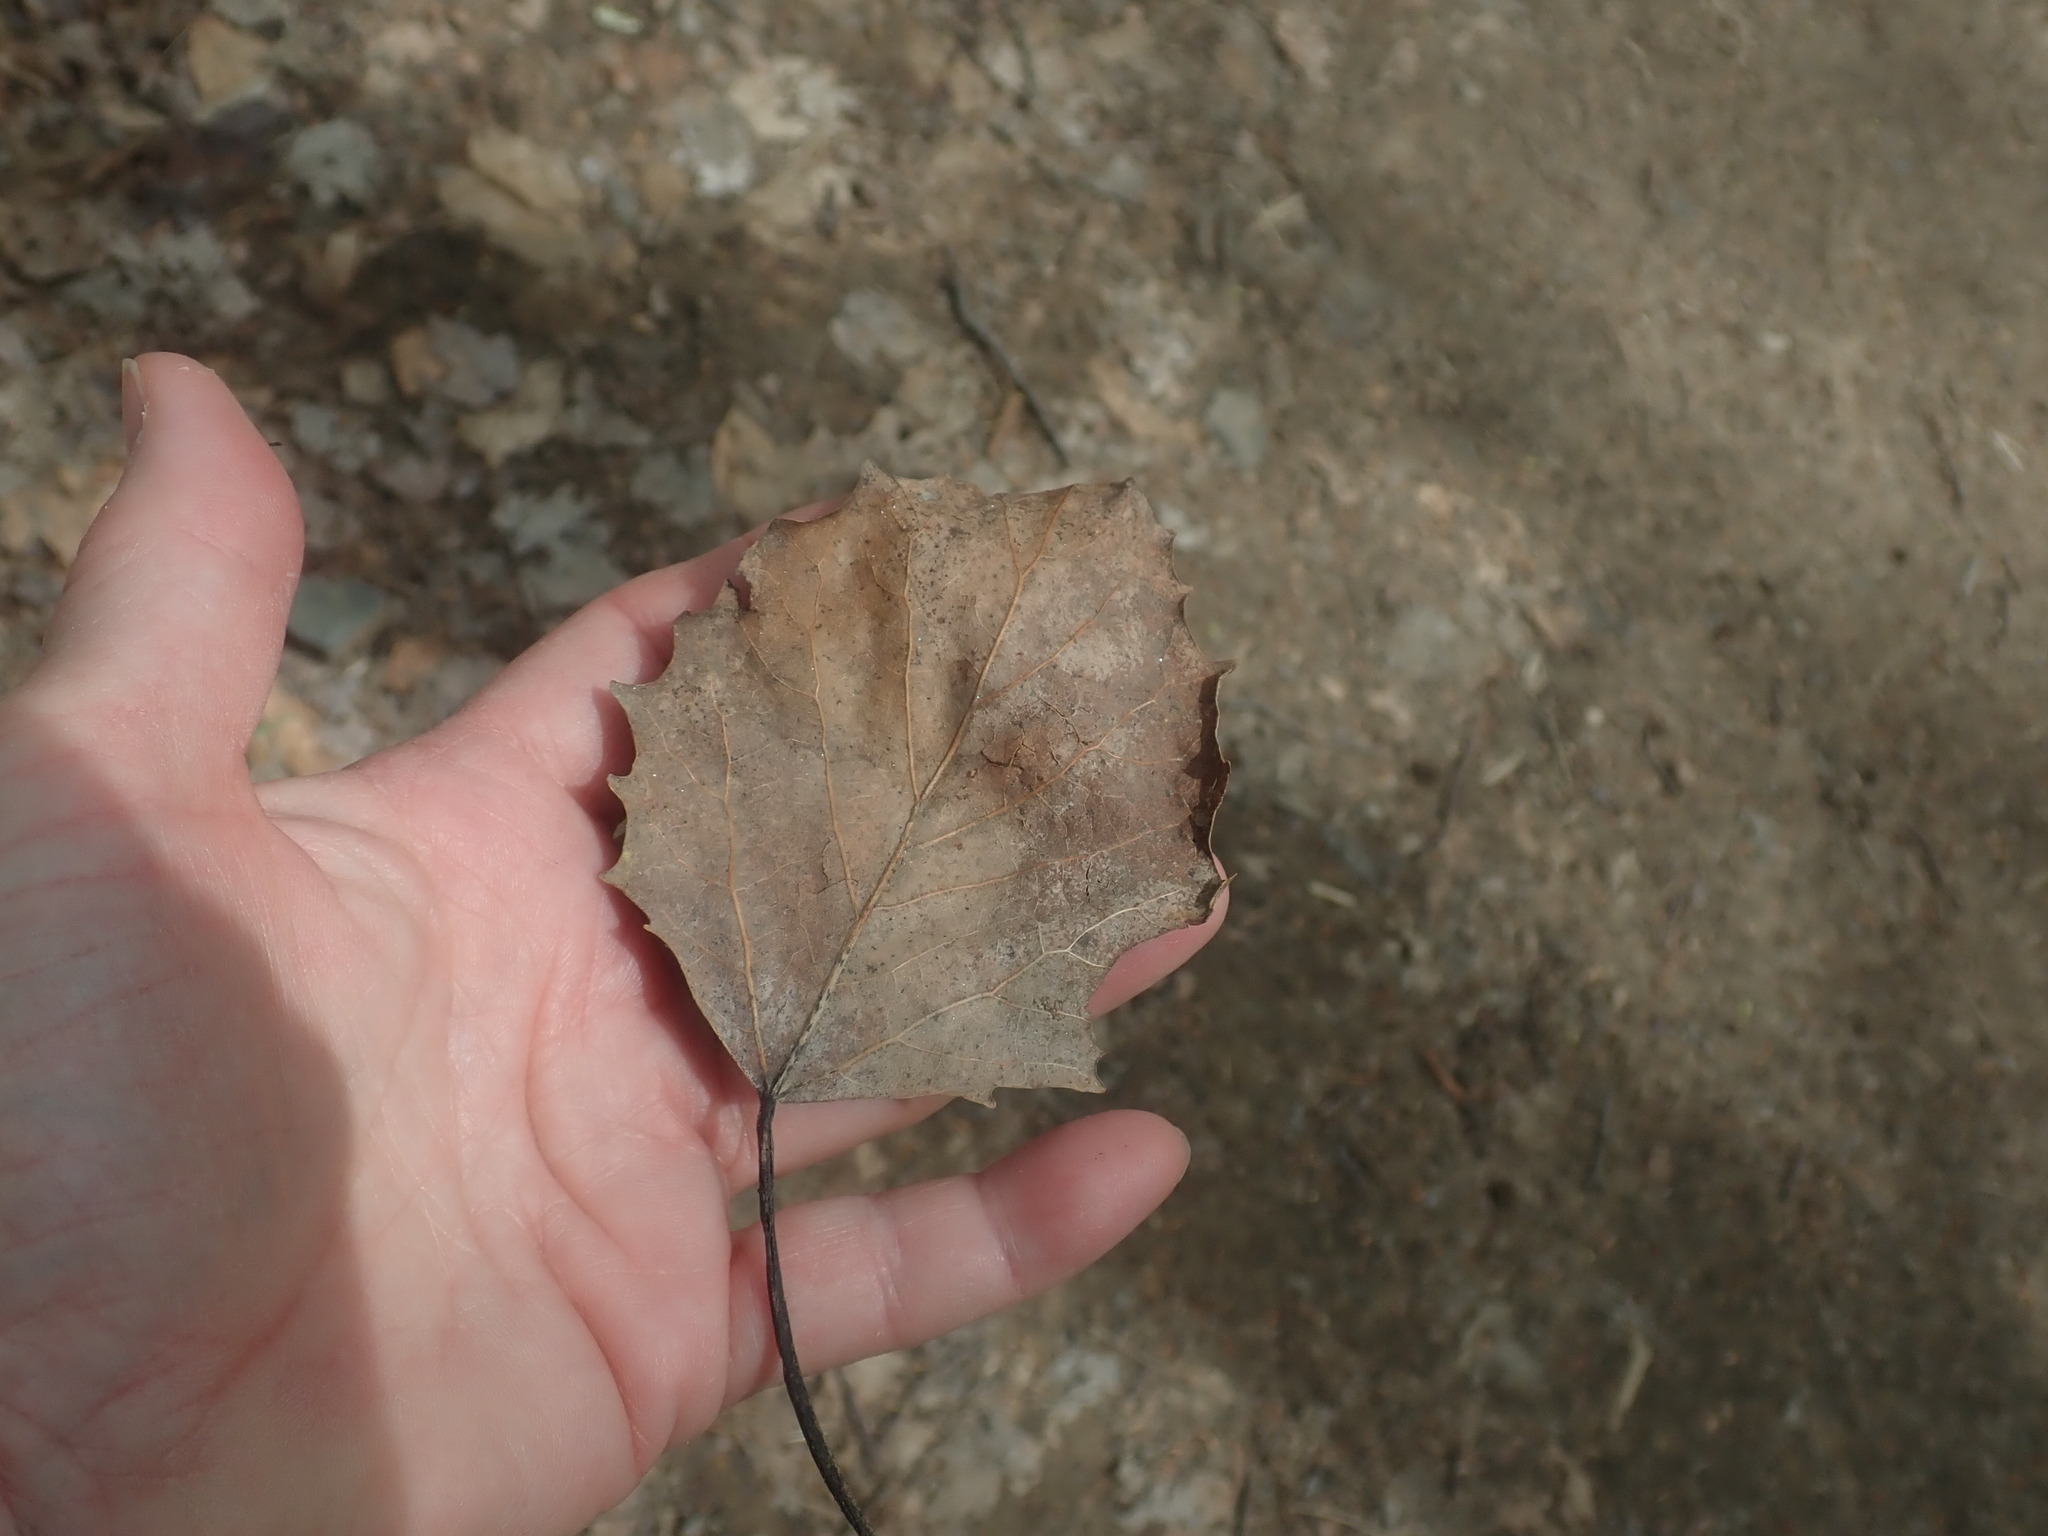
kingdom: Plantae
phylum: Tracheophyta
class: Magnoliopsida
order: Malpighiales
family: Salicaceae
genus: Populus
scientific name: Populus grandidentata
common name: Bigtooth aspen
